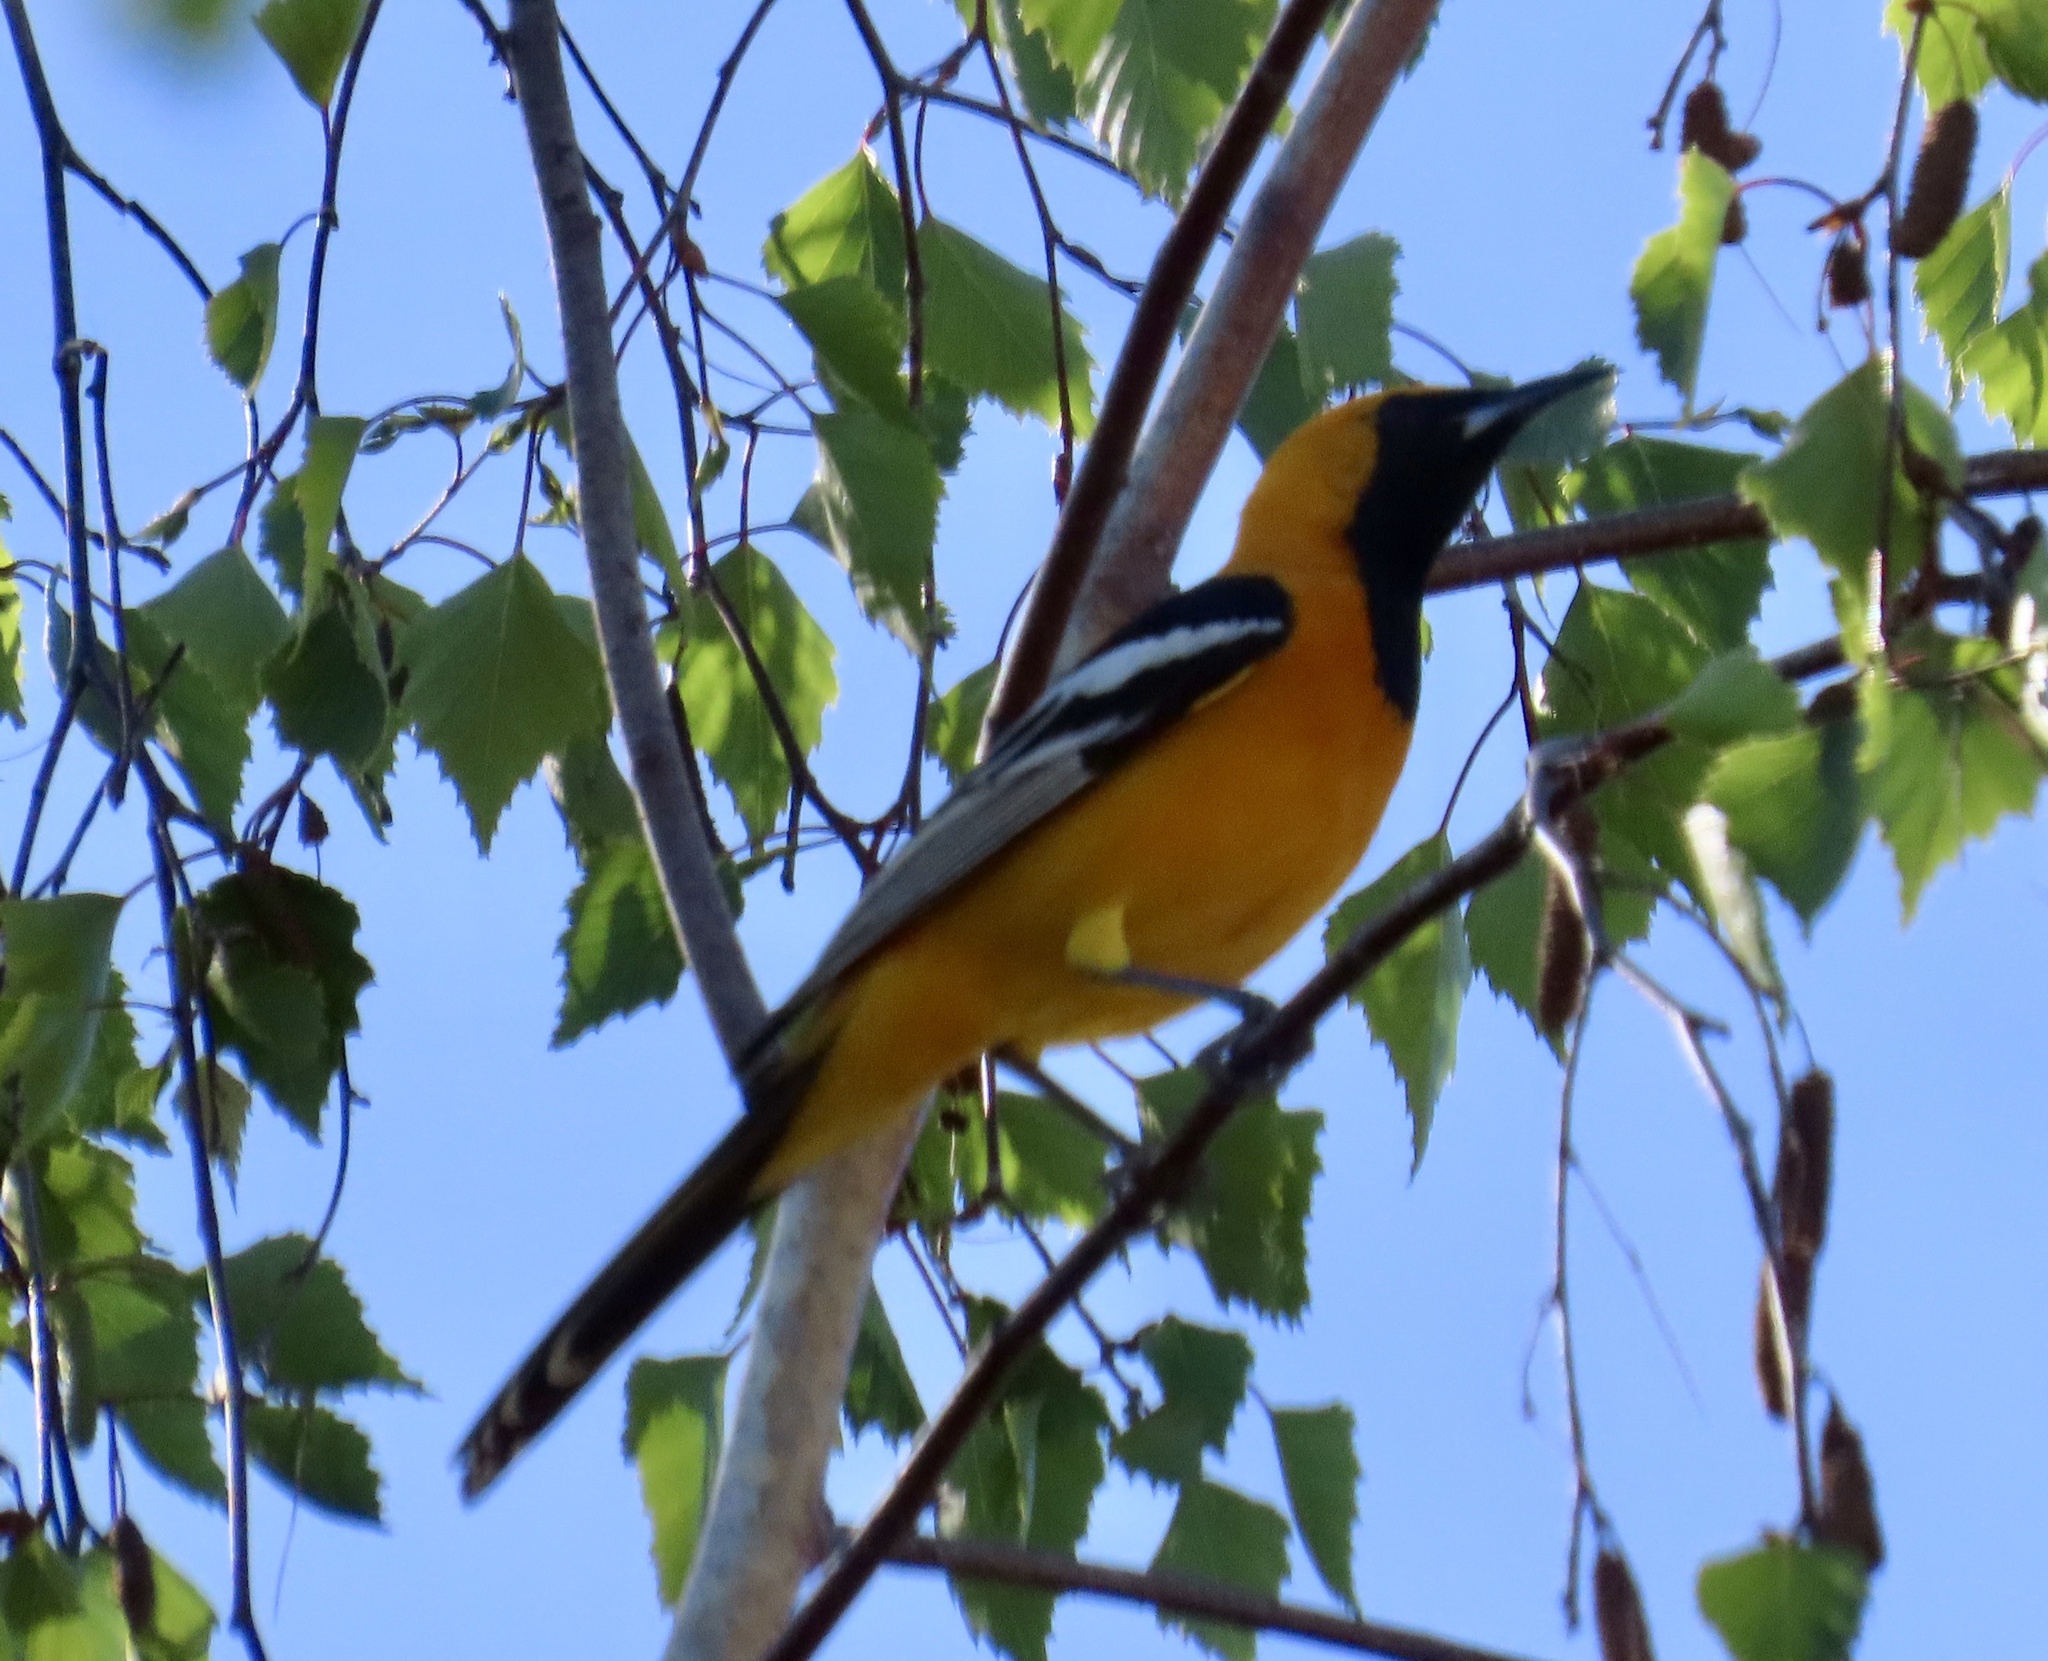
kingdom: Animalia
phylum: Chordata
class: Aves
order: Passeriformes
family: Icteridae
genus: Icterus
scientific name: Icterus cucullatus
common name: Hooded oriole
